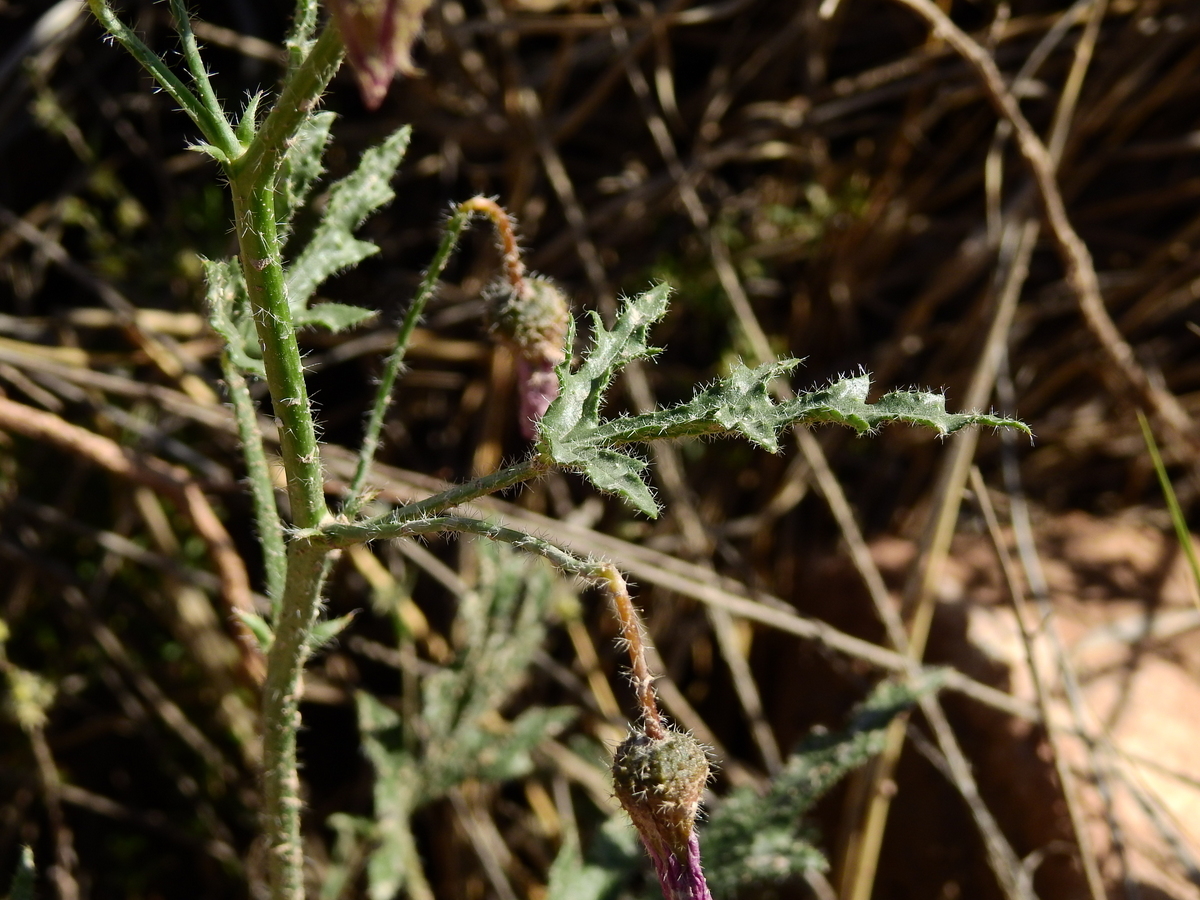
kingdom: Plantae
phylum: Tracheophyta
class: Magnoliopsida
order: Malvales
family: Malvaceae
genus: Lecanophora
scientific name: Lecanophora heterophylla
